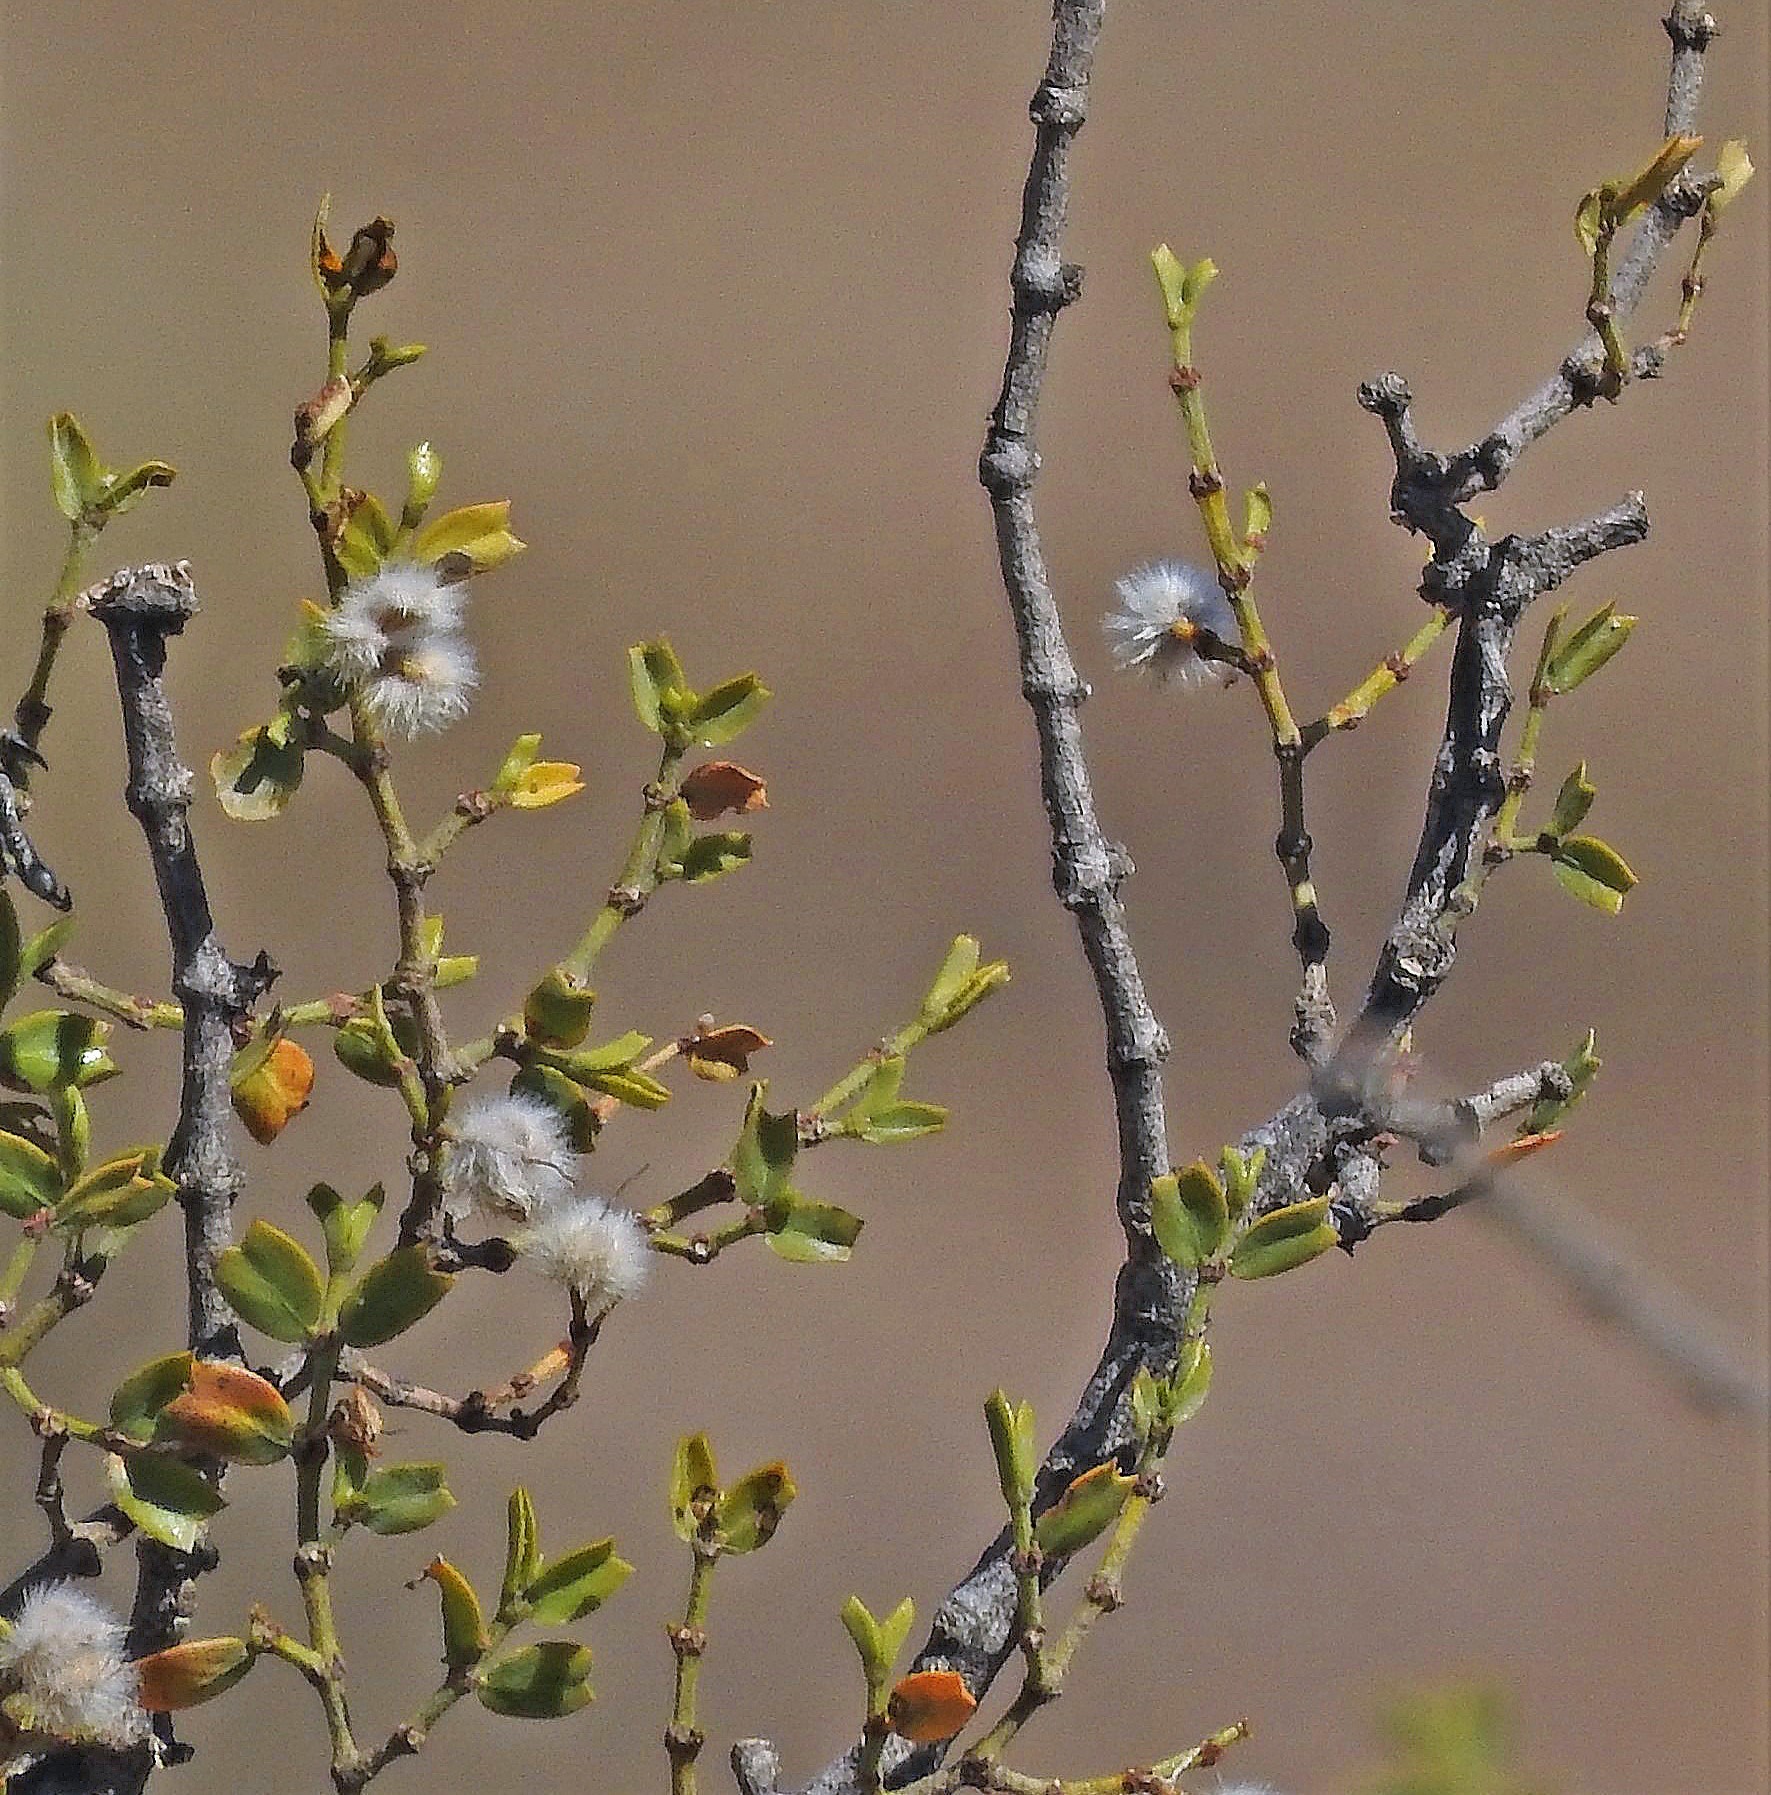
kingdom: Plantae
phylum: Tracheophyta
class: Magnoliopsida
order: Zygophyllales
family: Zygophyllaceae
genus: Larrea
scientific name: Larrea cuneifolia
